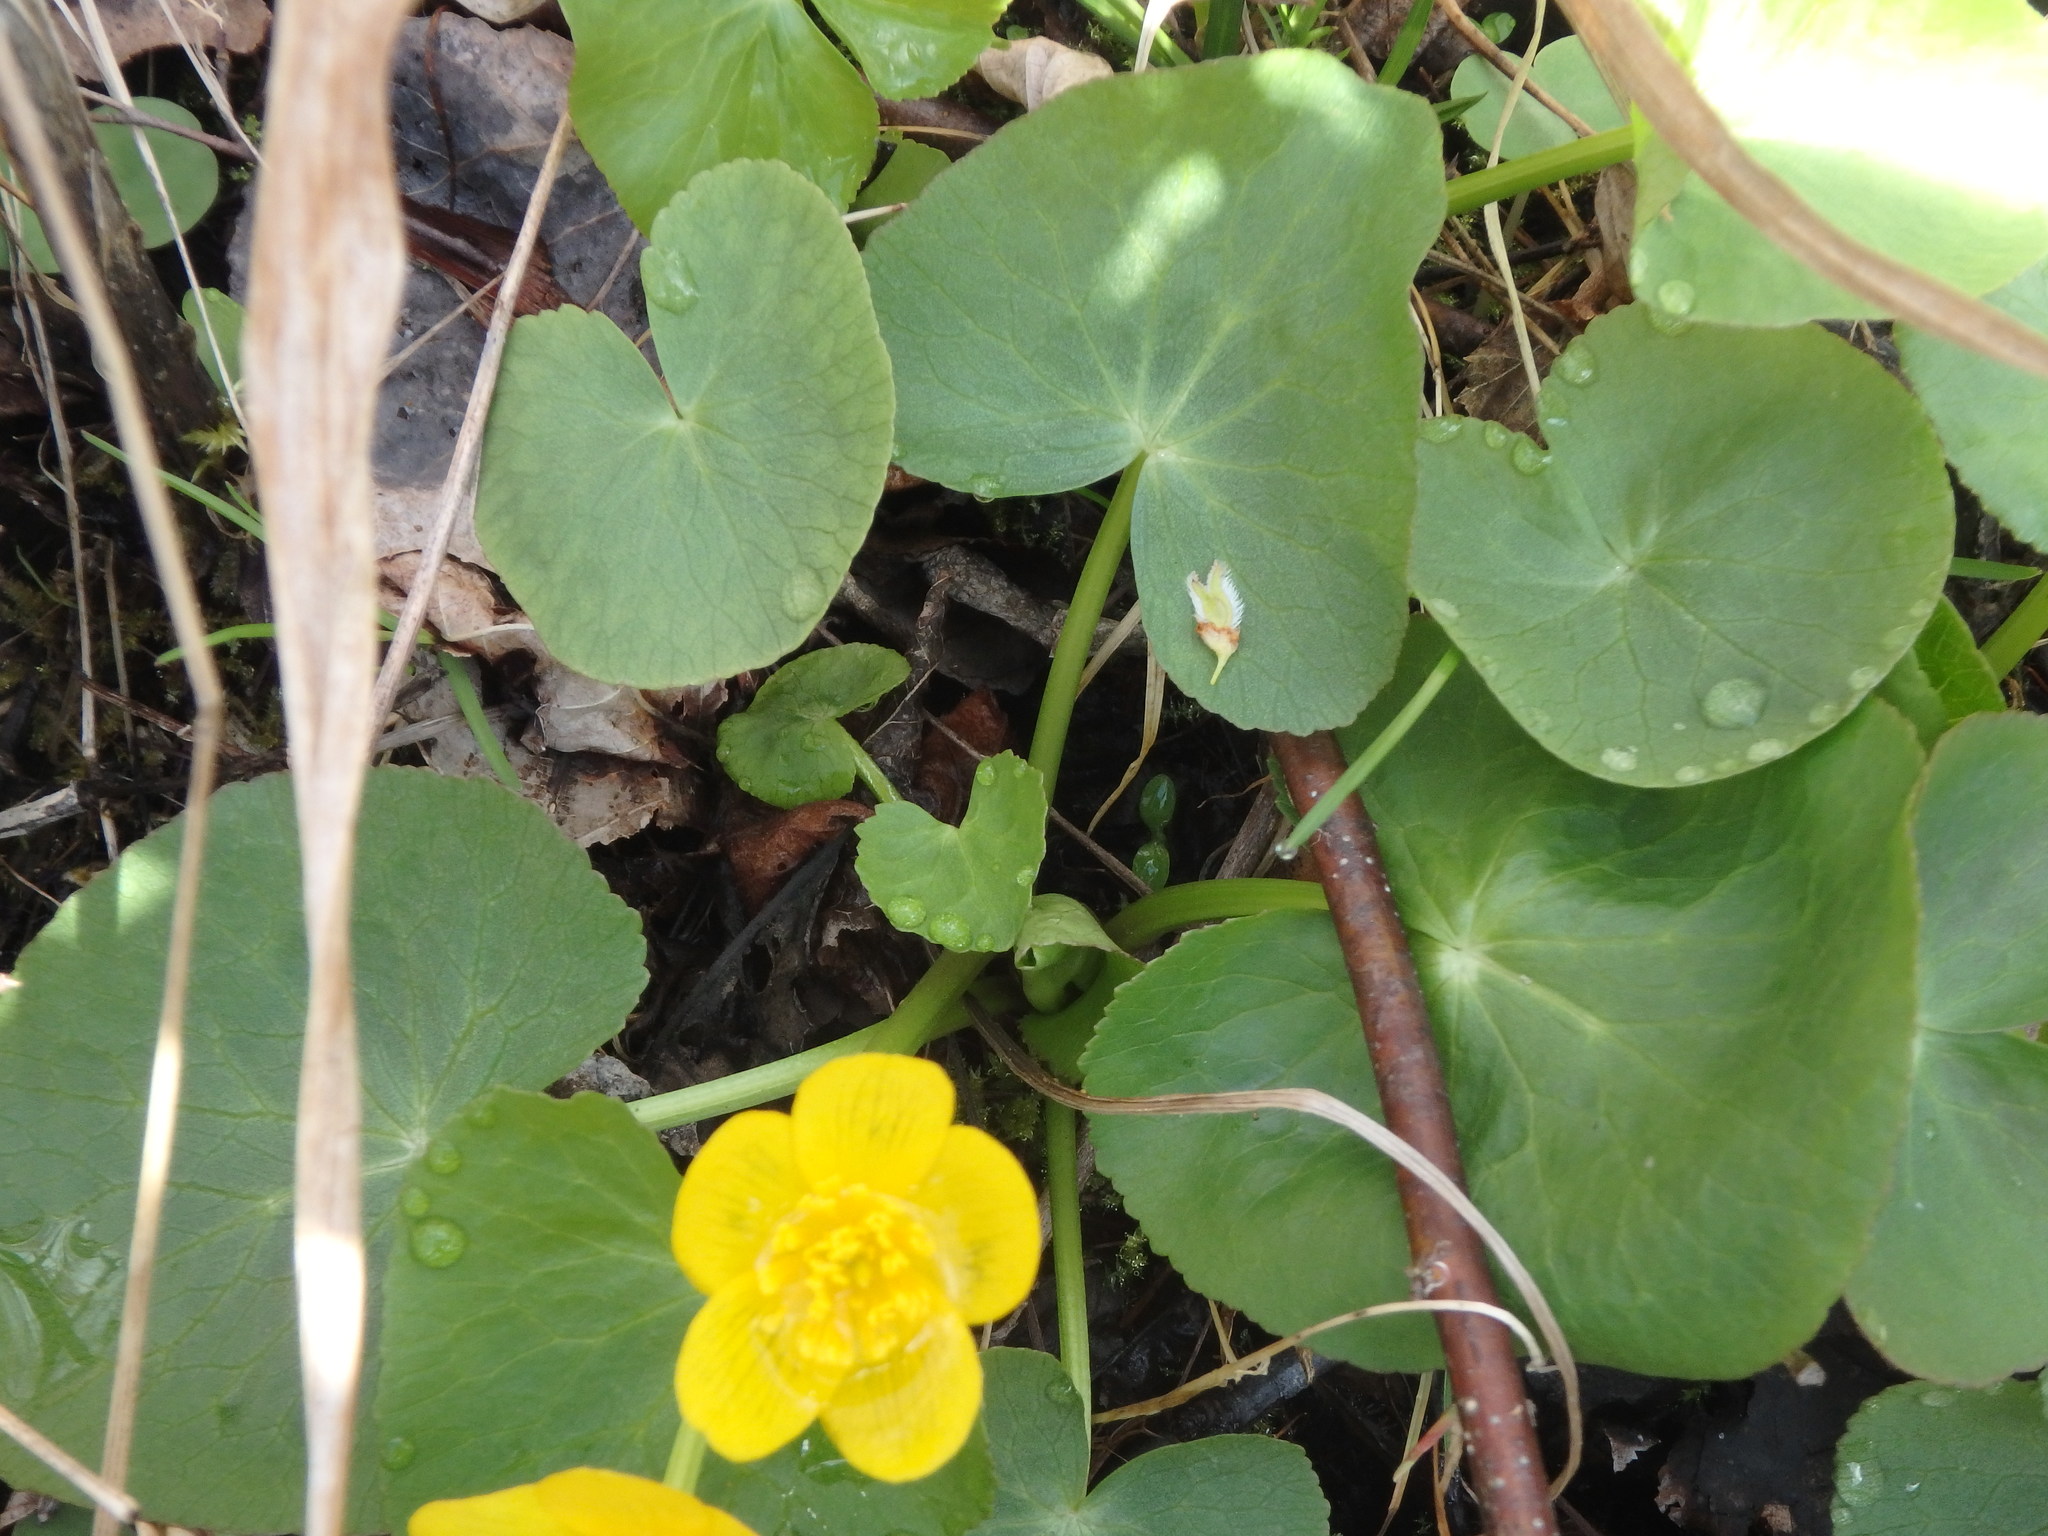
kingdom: Plantae
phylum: Tracheophyta
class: Magnoliopsida
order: Ranunculales
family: Ranunculaceae
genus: Caltha
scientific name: Caltha palustris
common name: Marsh marigold
